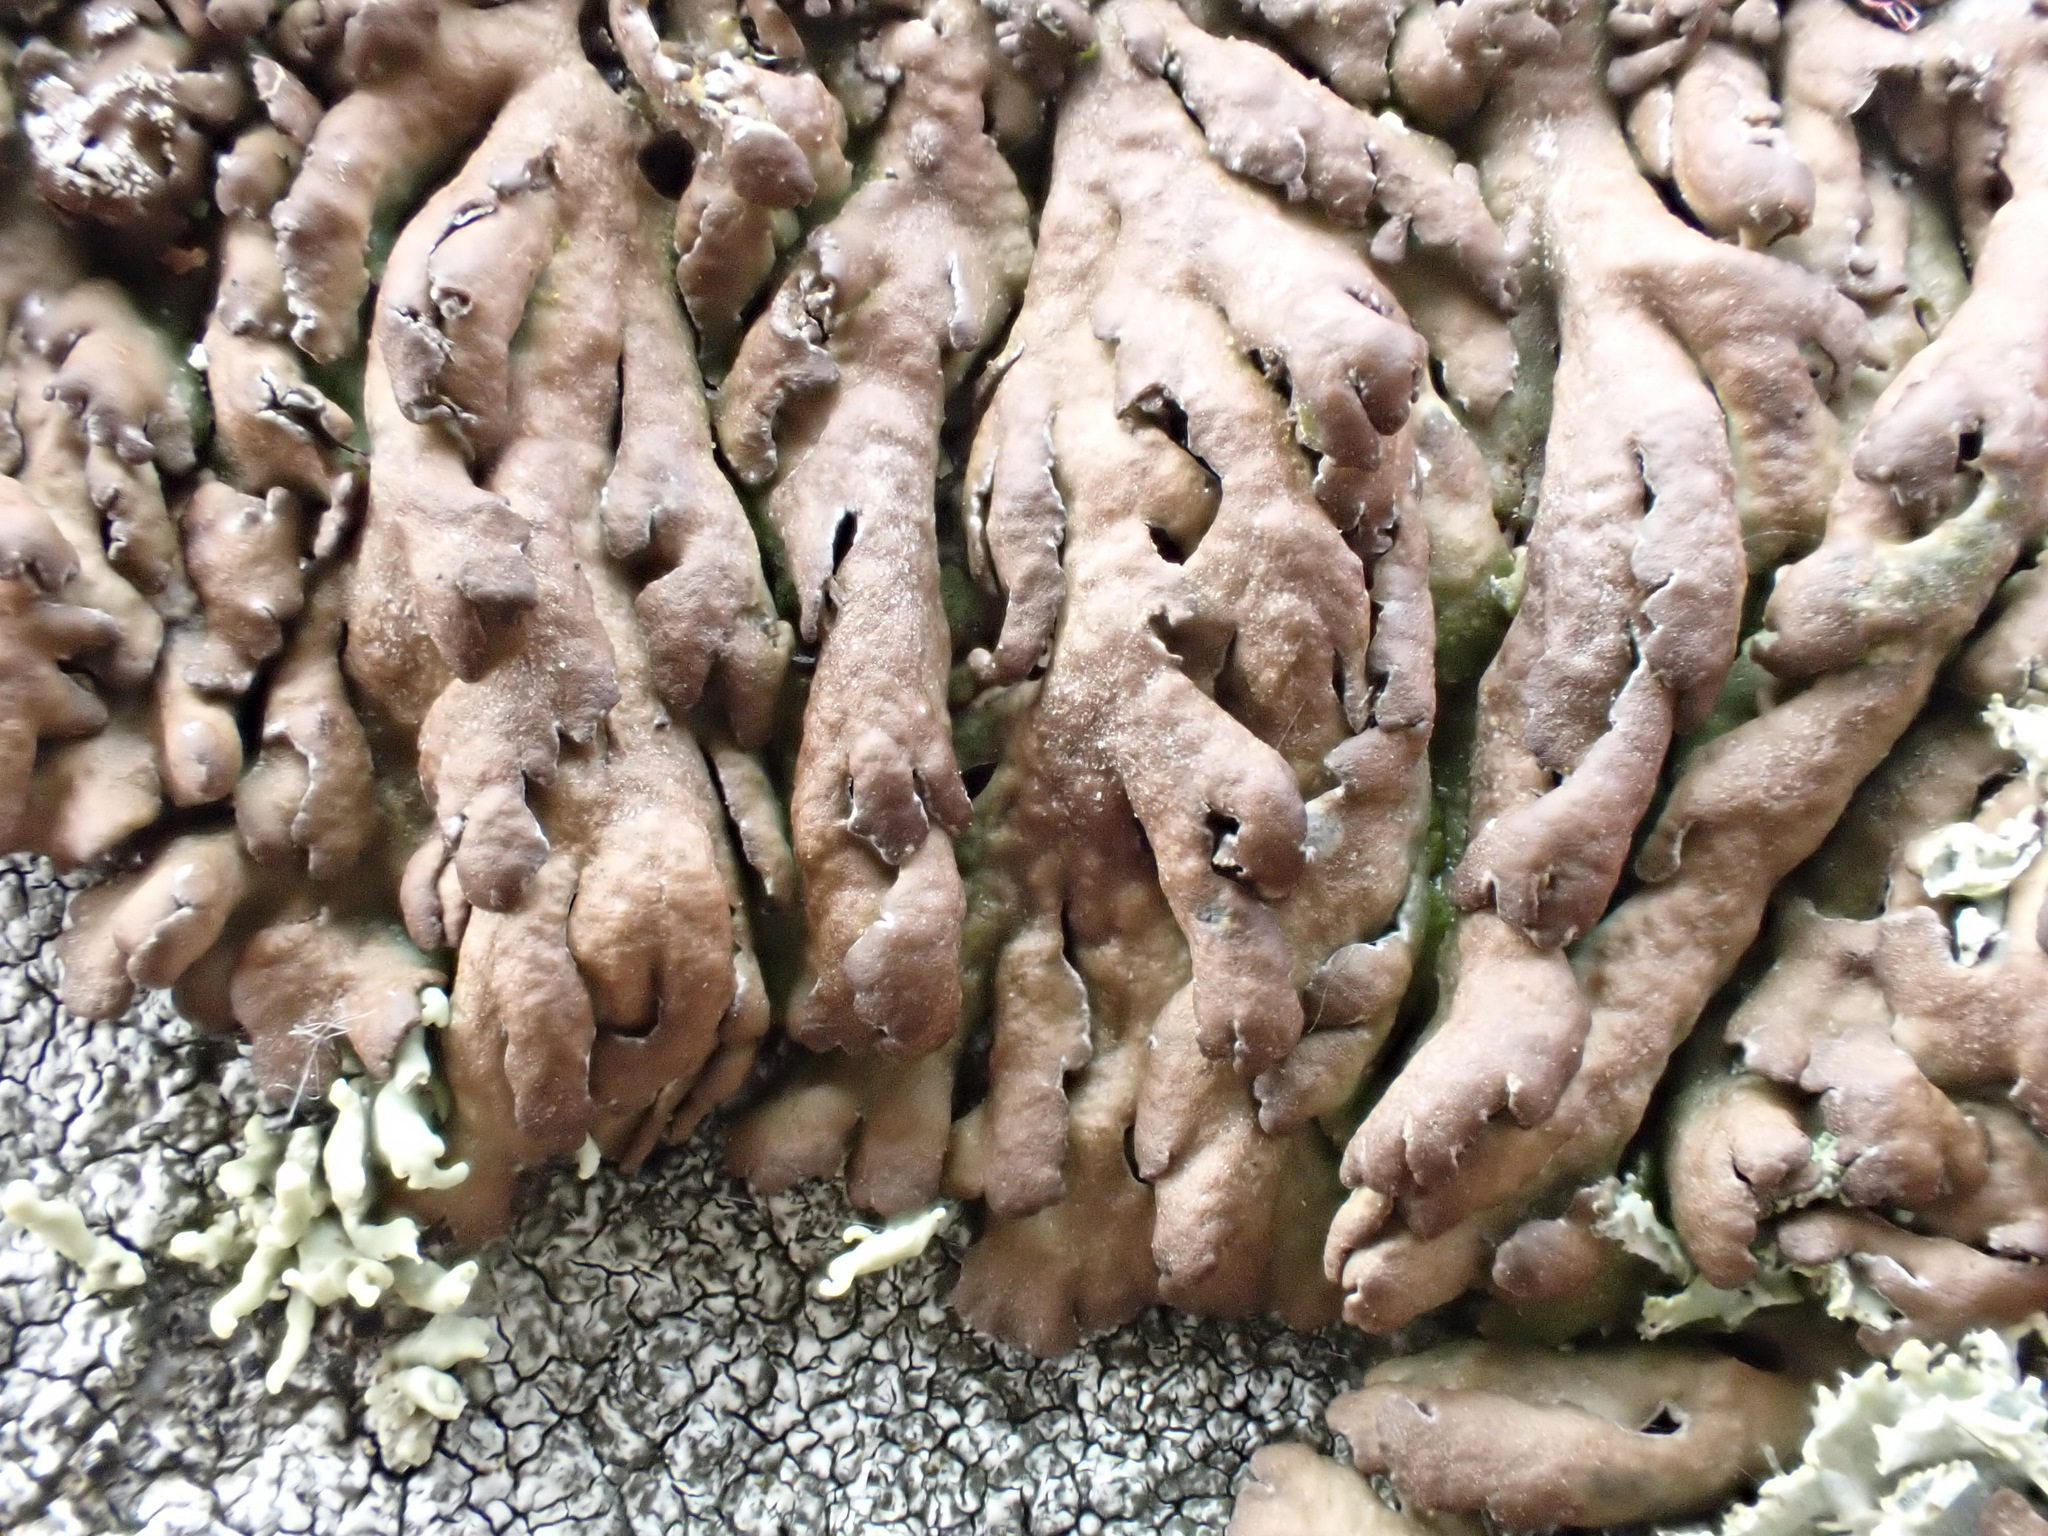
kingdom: Fungi
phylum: Ascomycota
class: Lecanoromycetes
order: Caliciales
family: Physciaceae
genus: Kurokawia
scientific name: Kurokawia runcinata
